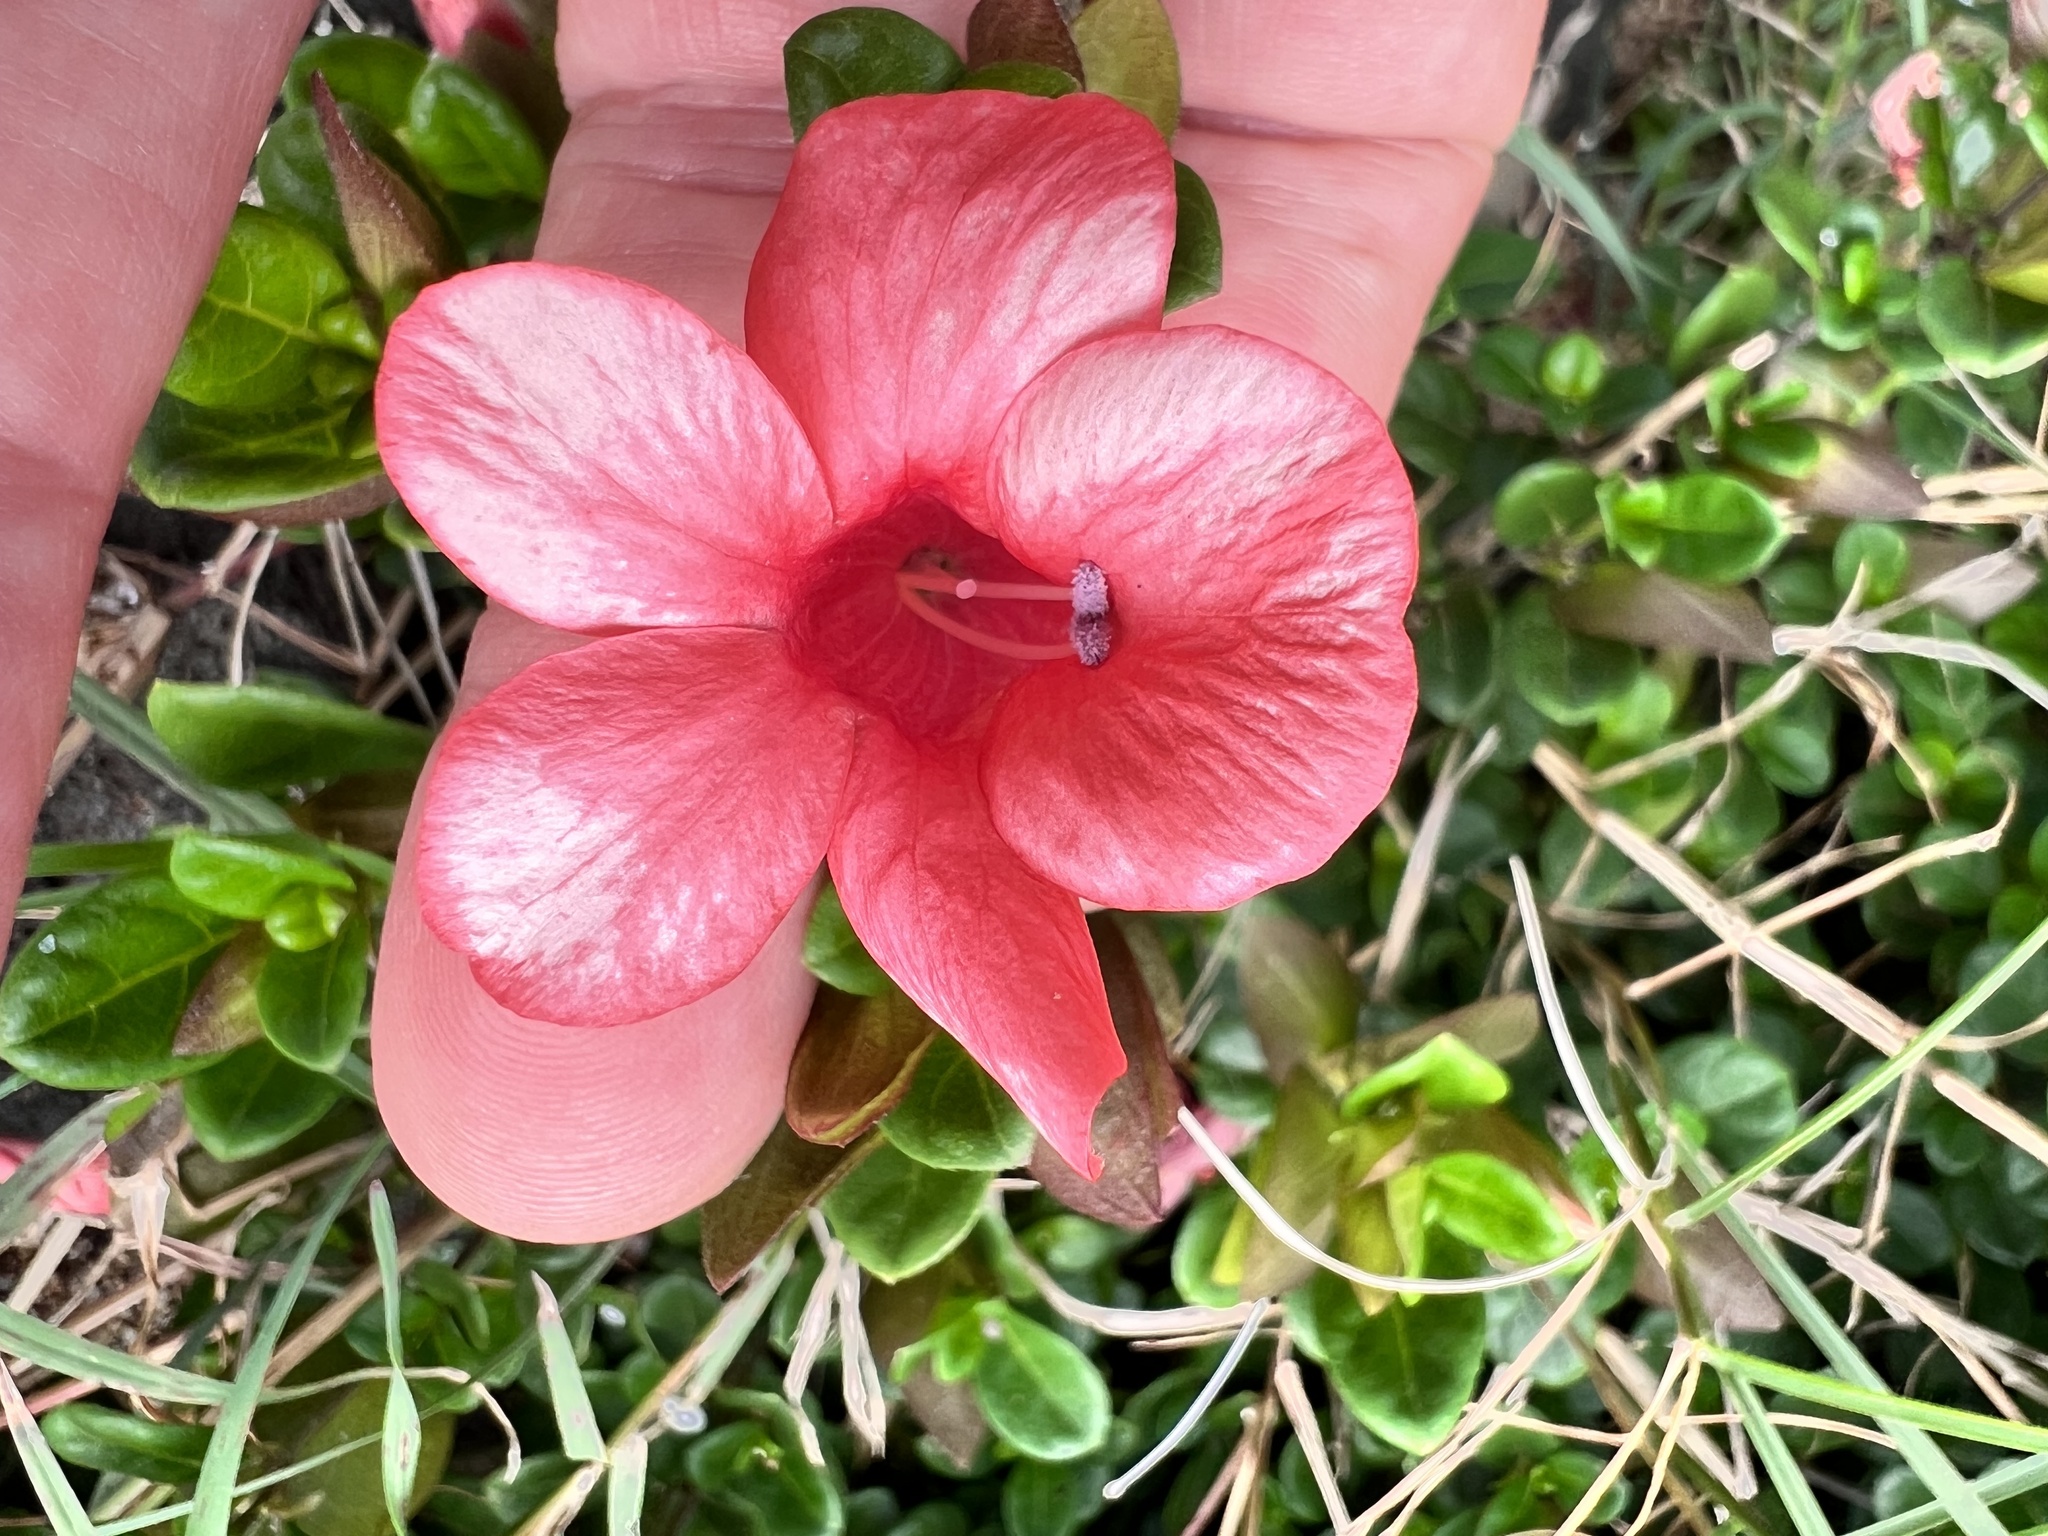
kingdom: Plantae
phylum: Tracheophyta
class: Magnoliopsida
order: Lamiales
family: Acanthaceae
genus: Barleria
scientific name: Barleria repens
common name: Pink-ruellia
